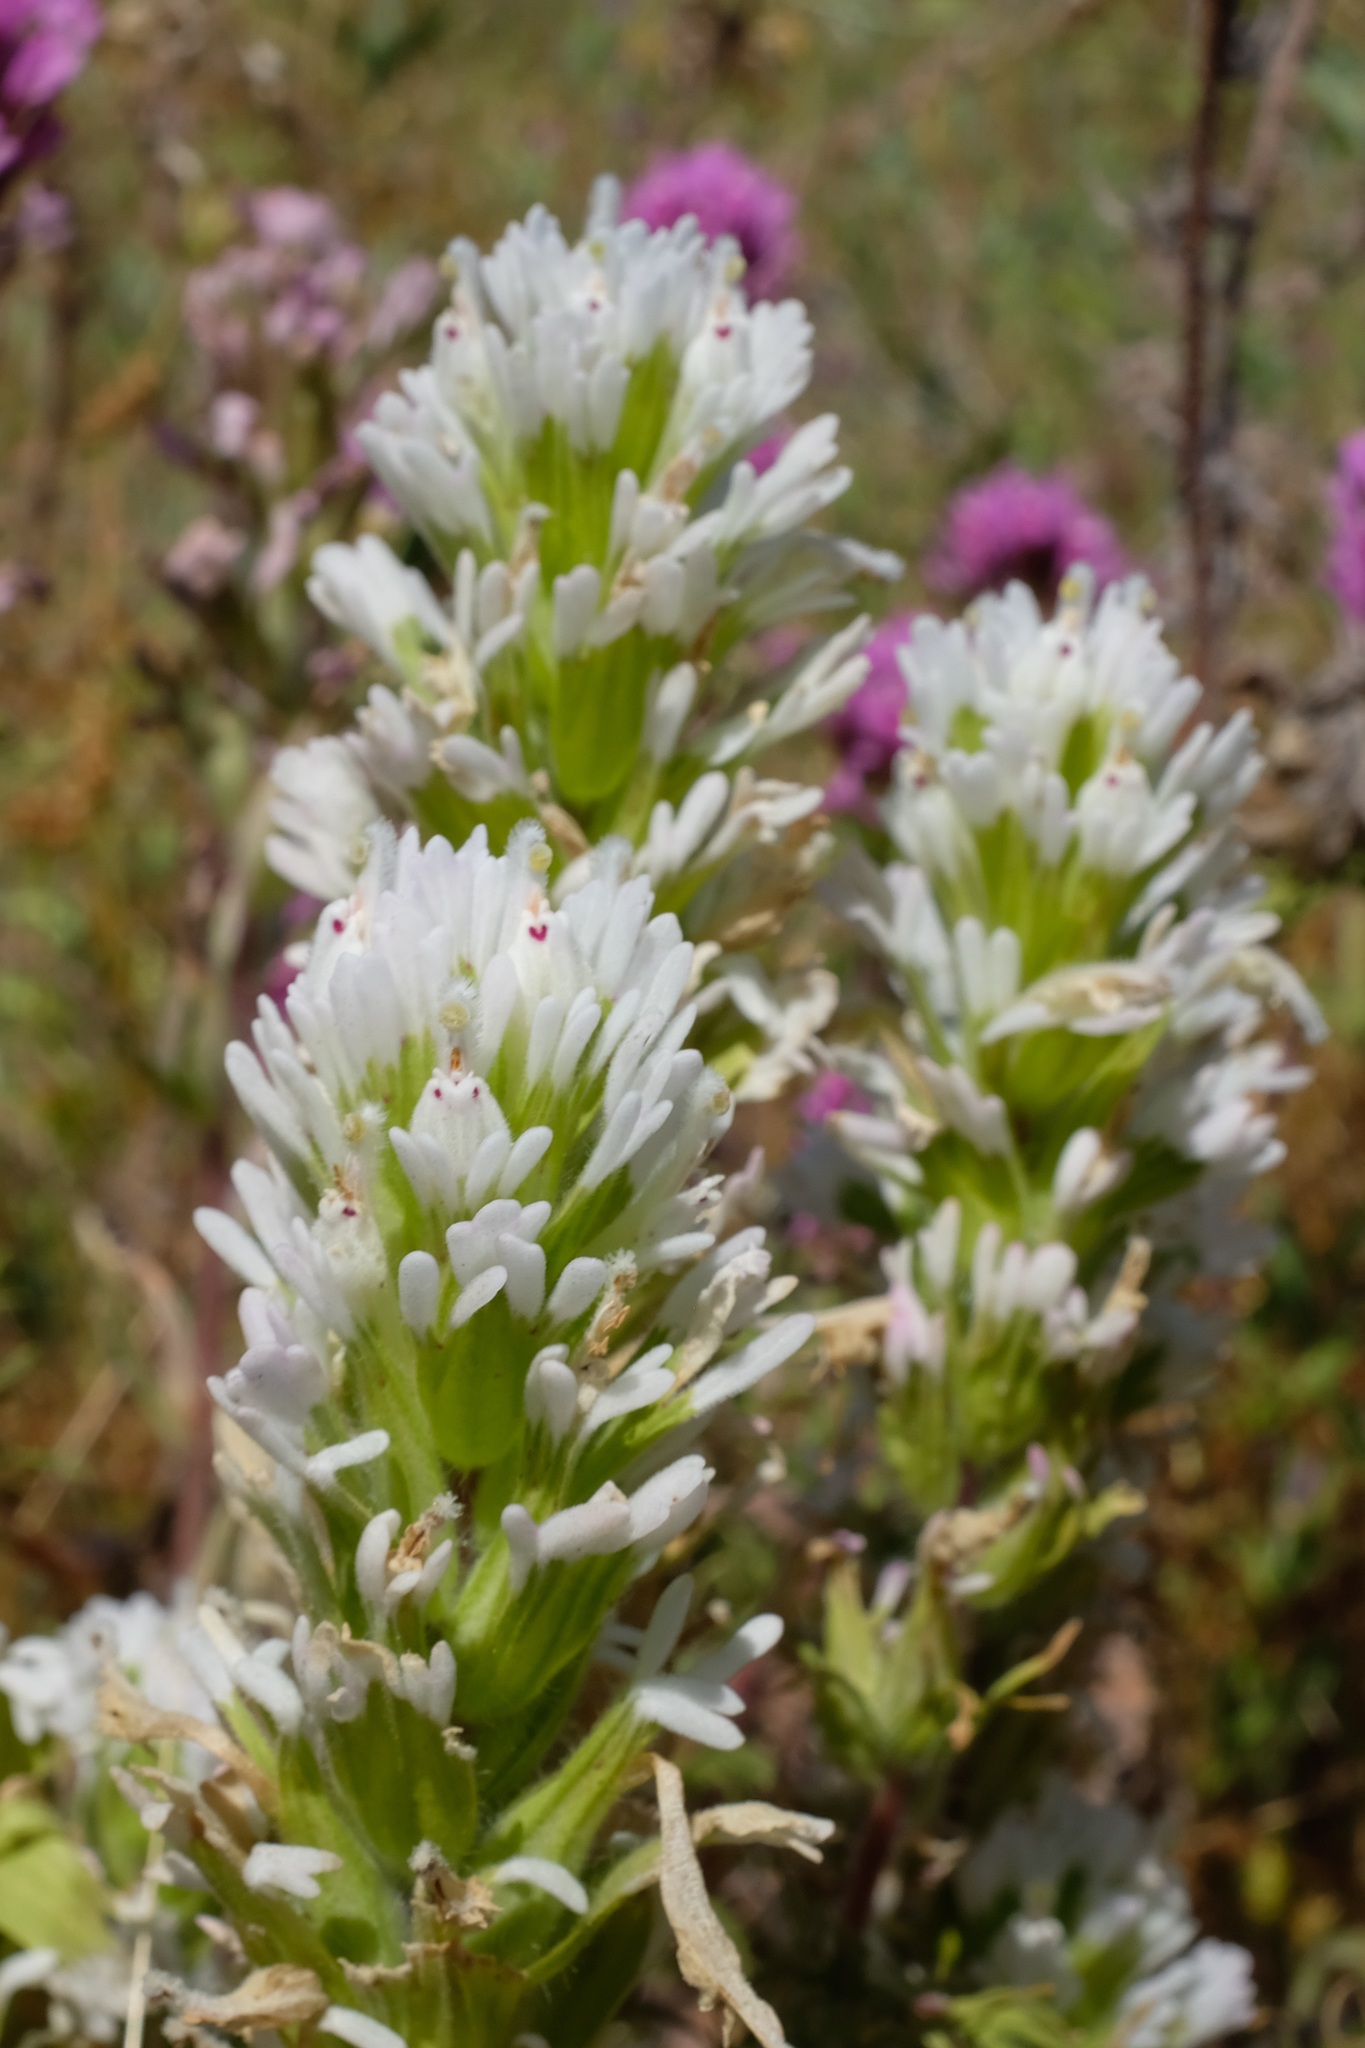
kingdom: Plantae
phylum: Tracheophyta
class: Magnoliopsida
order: Lamiales
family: Orobanchaceae
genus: Castilleja
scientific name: Castilleja exserta
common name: Purple owl-clover
